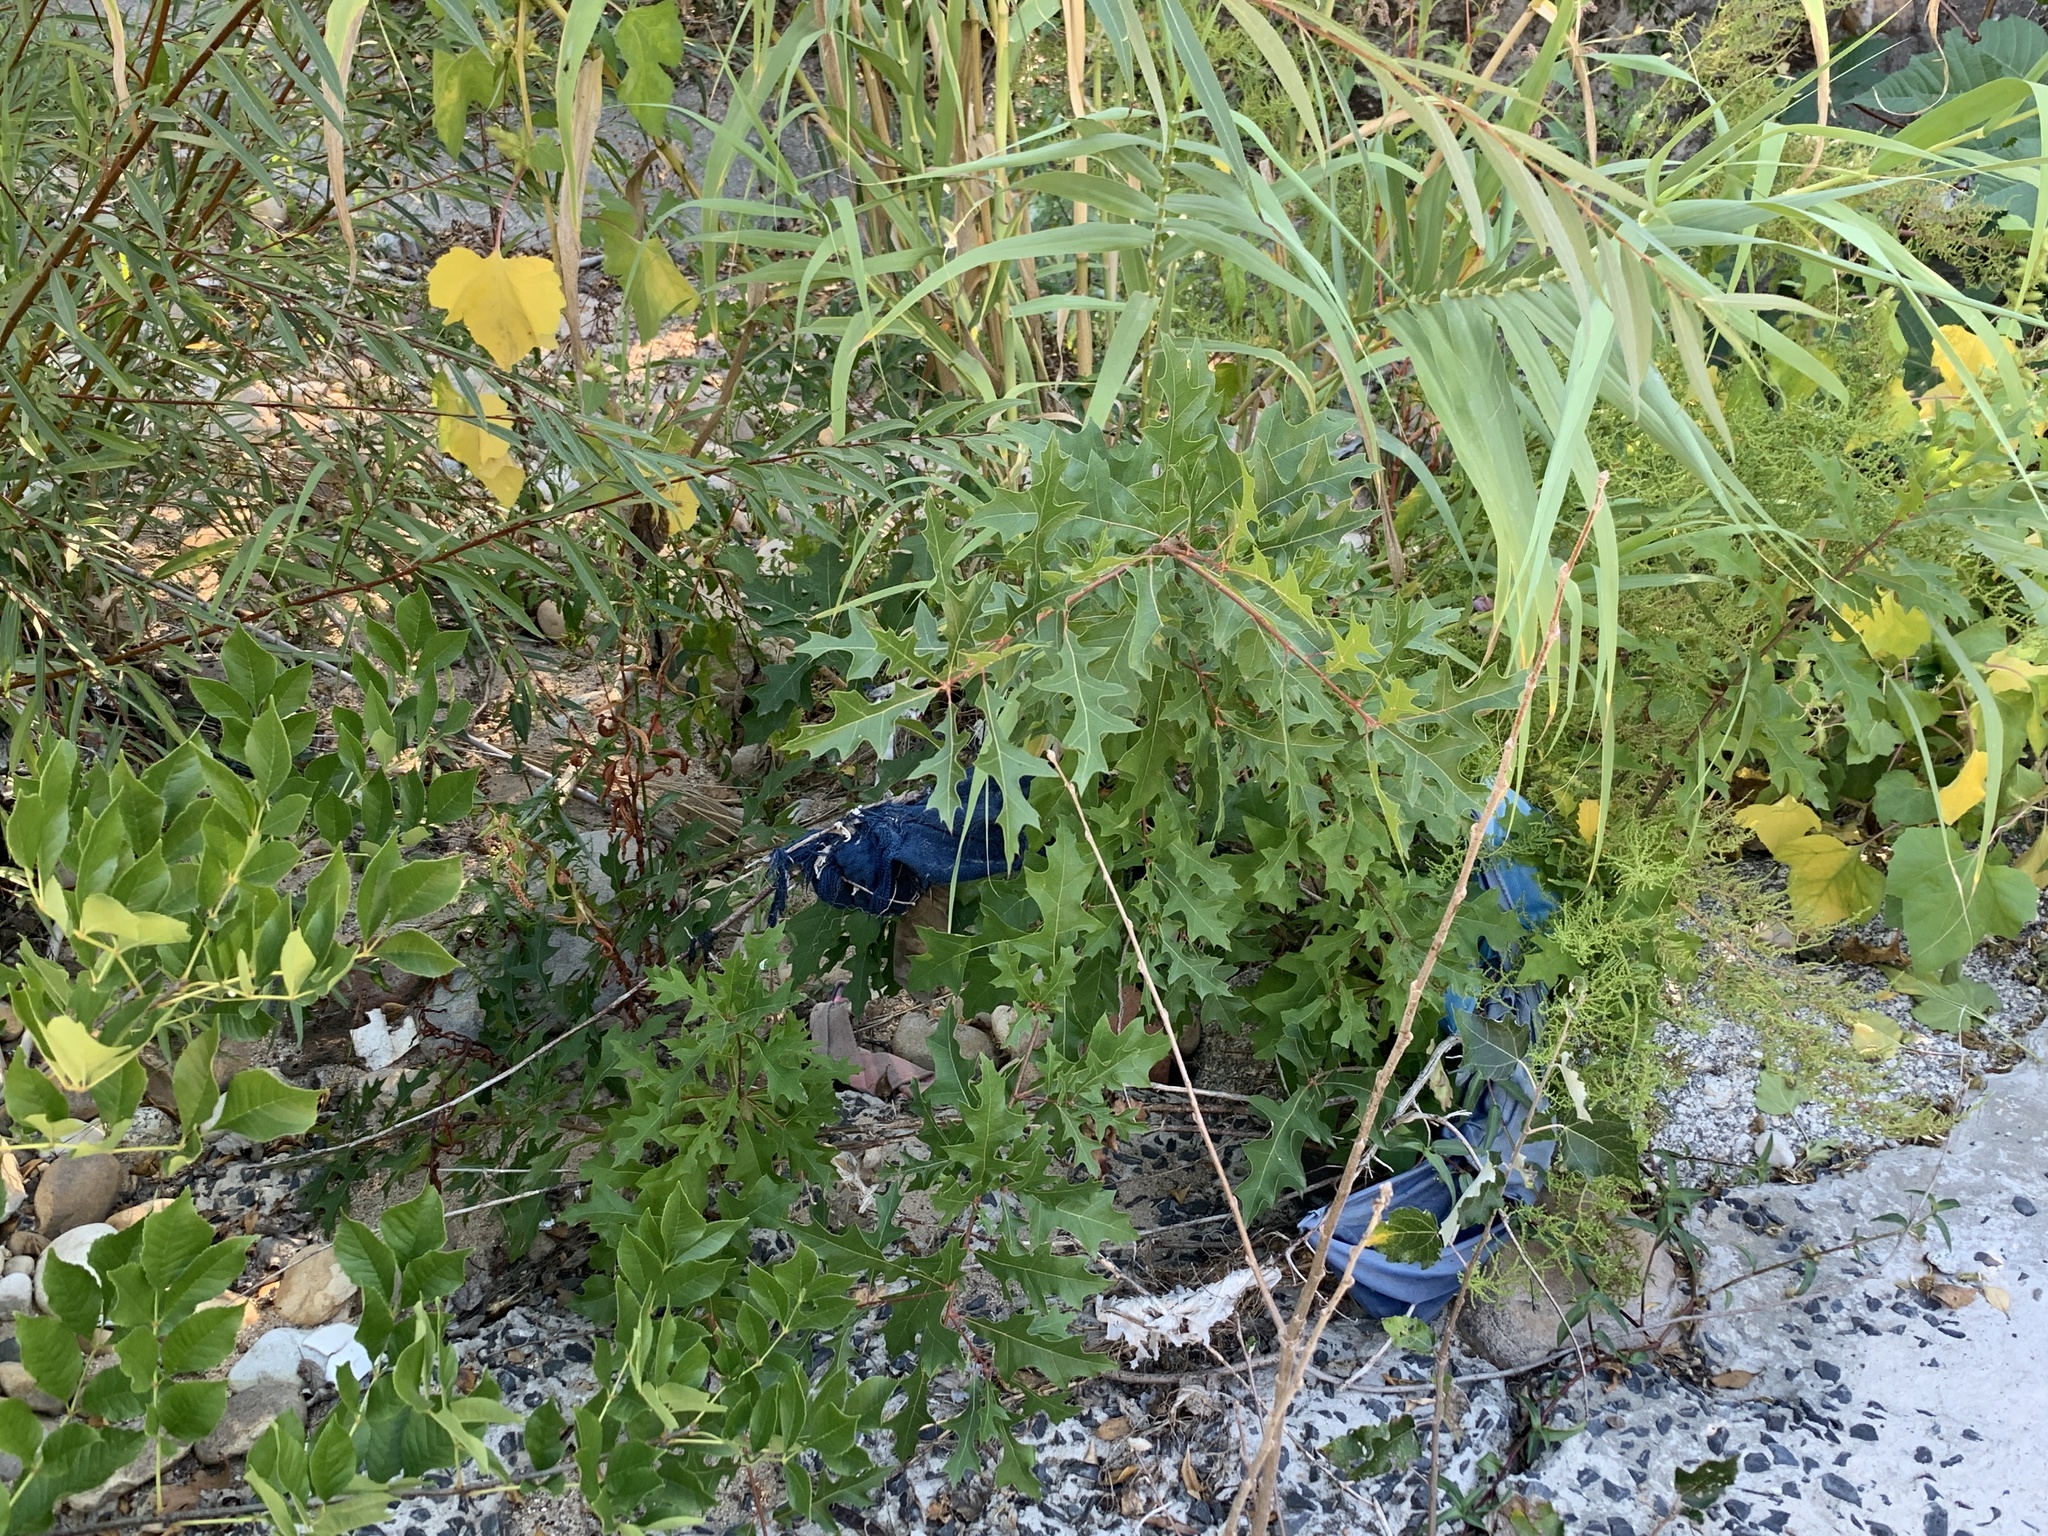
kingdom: Plantae
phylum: Tracheophyta
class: Magnoliopsida
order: Fagales
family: Fagaceae
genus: Quercus
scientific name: Quercus palustris
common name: Pin oak
